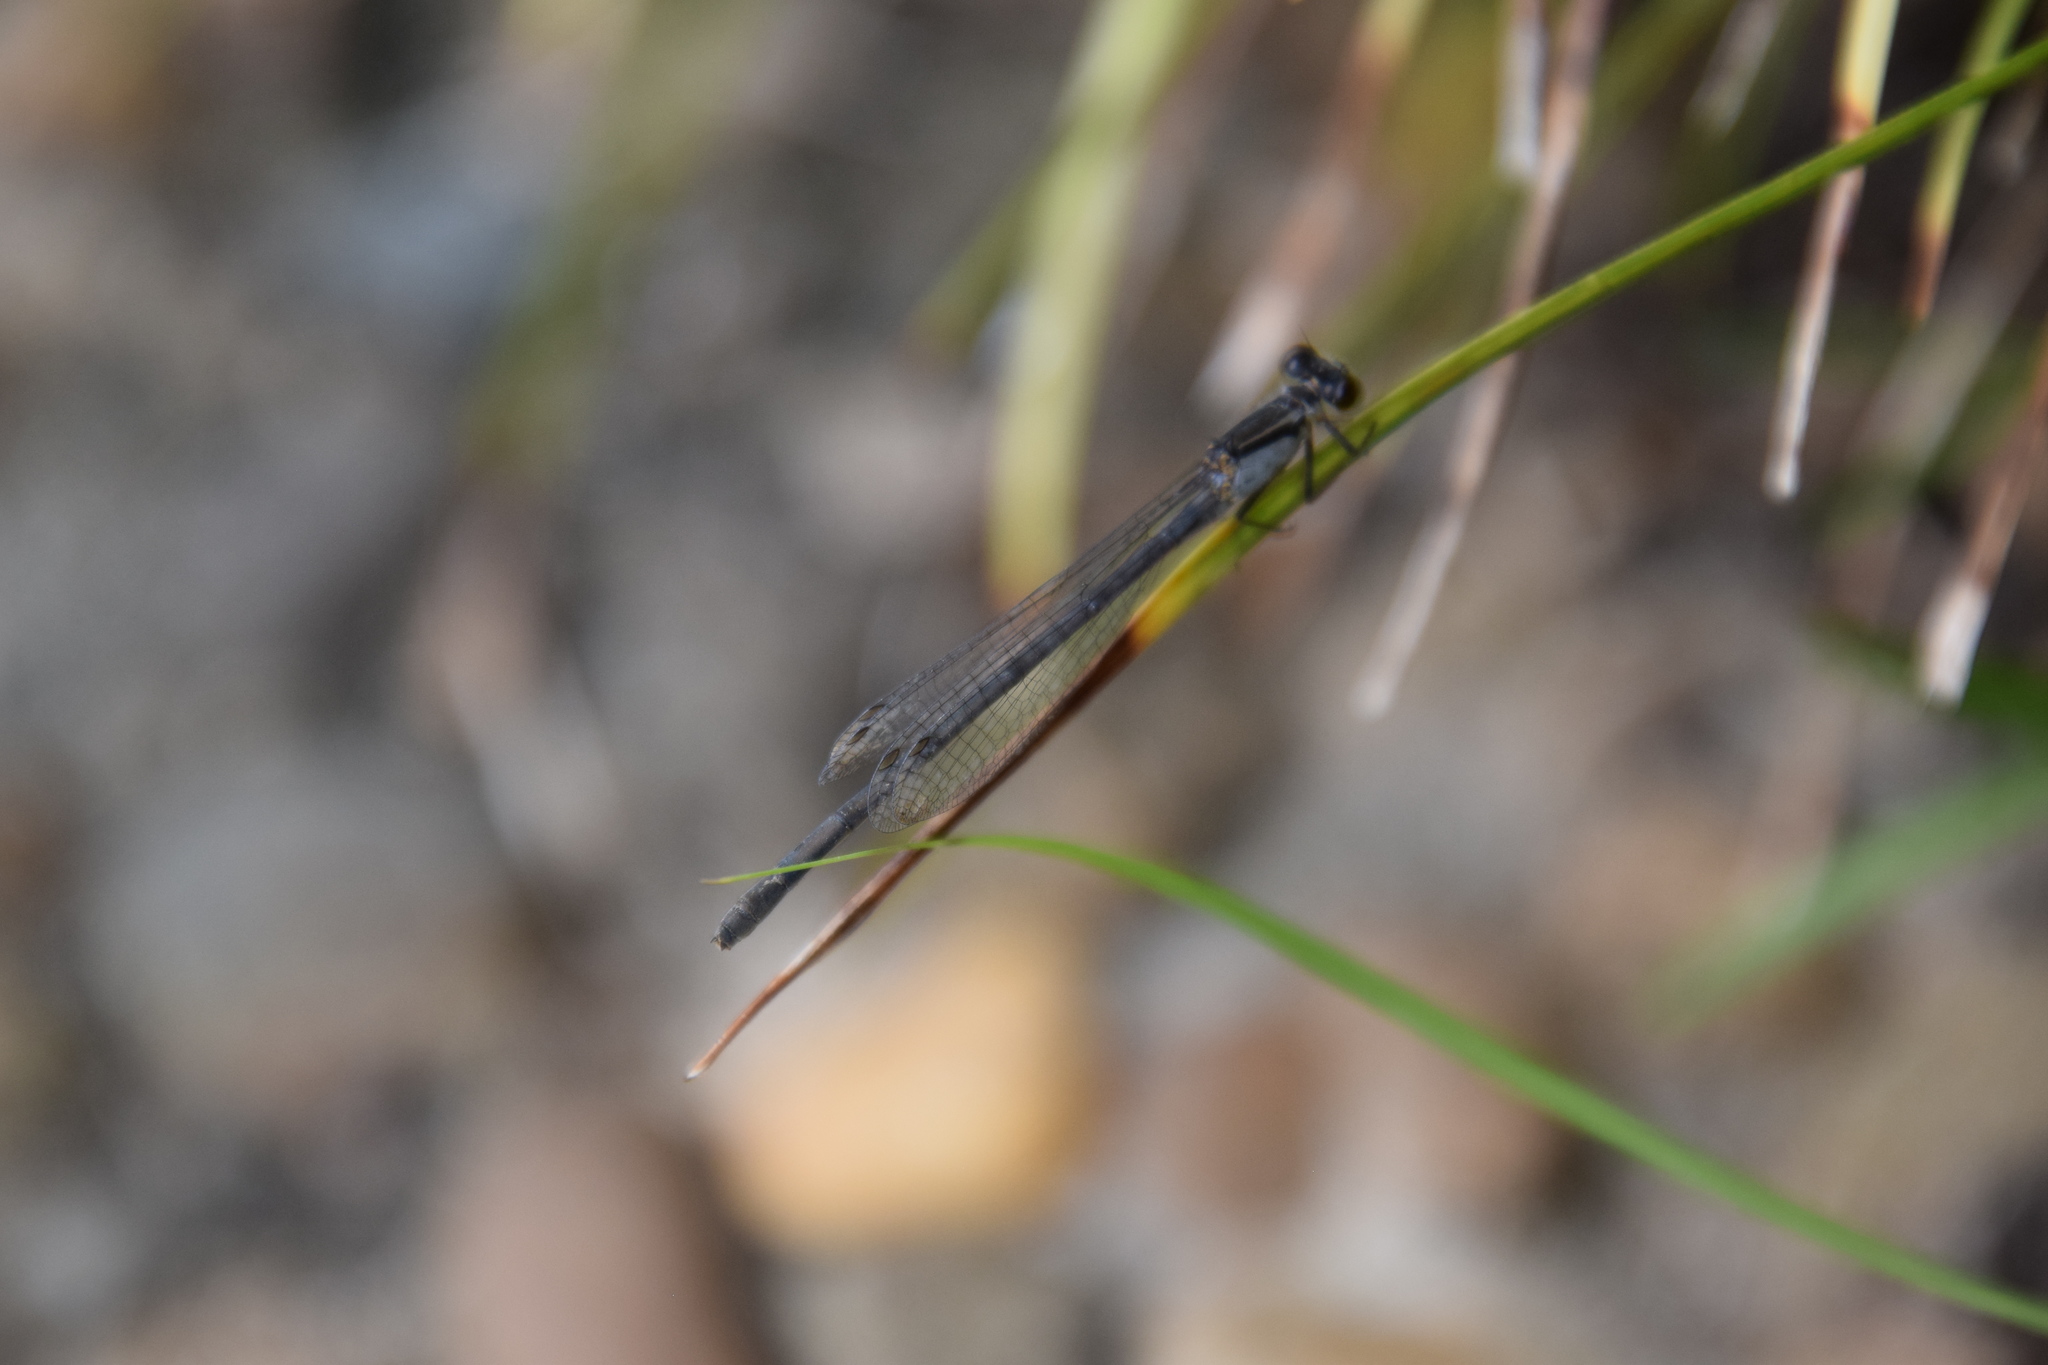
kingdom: Animalia
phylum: Arthropoda
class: Insecta
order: Odonata
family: Coenagrionidae
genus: Ischnura
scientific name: Ischnura heterosticta
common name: Common bluetail
